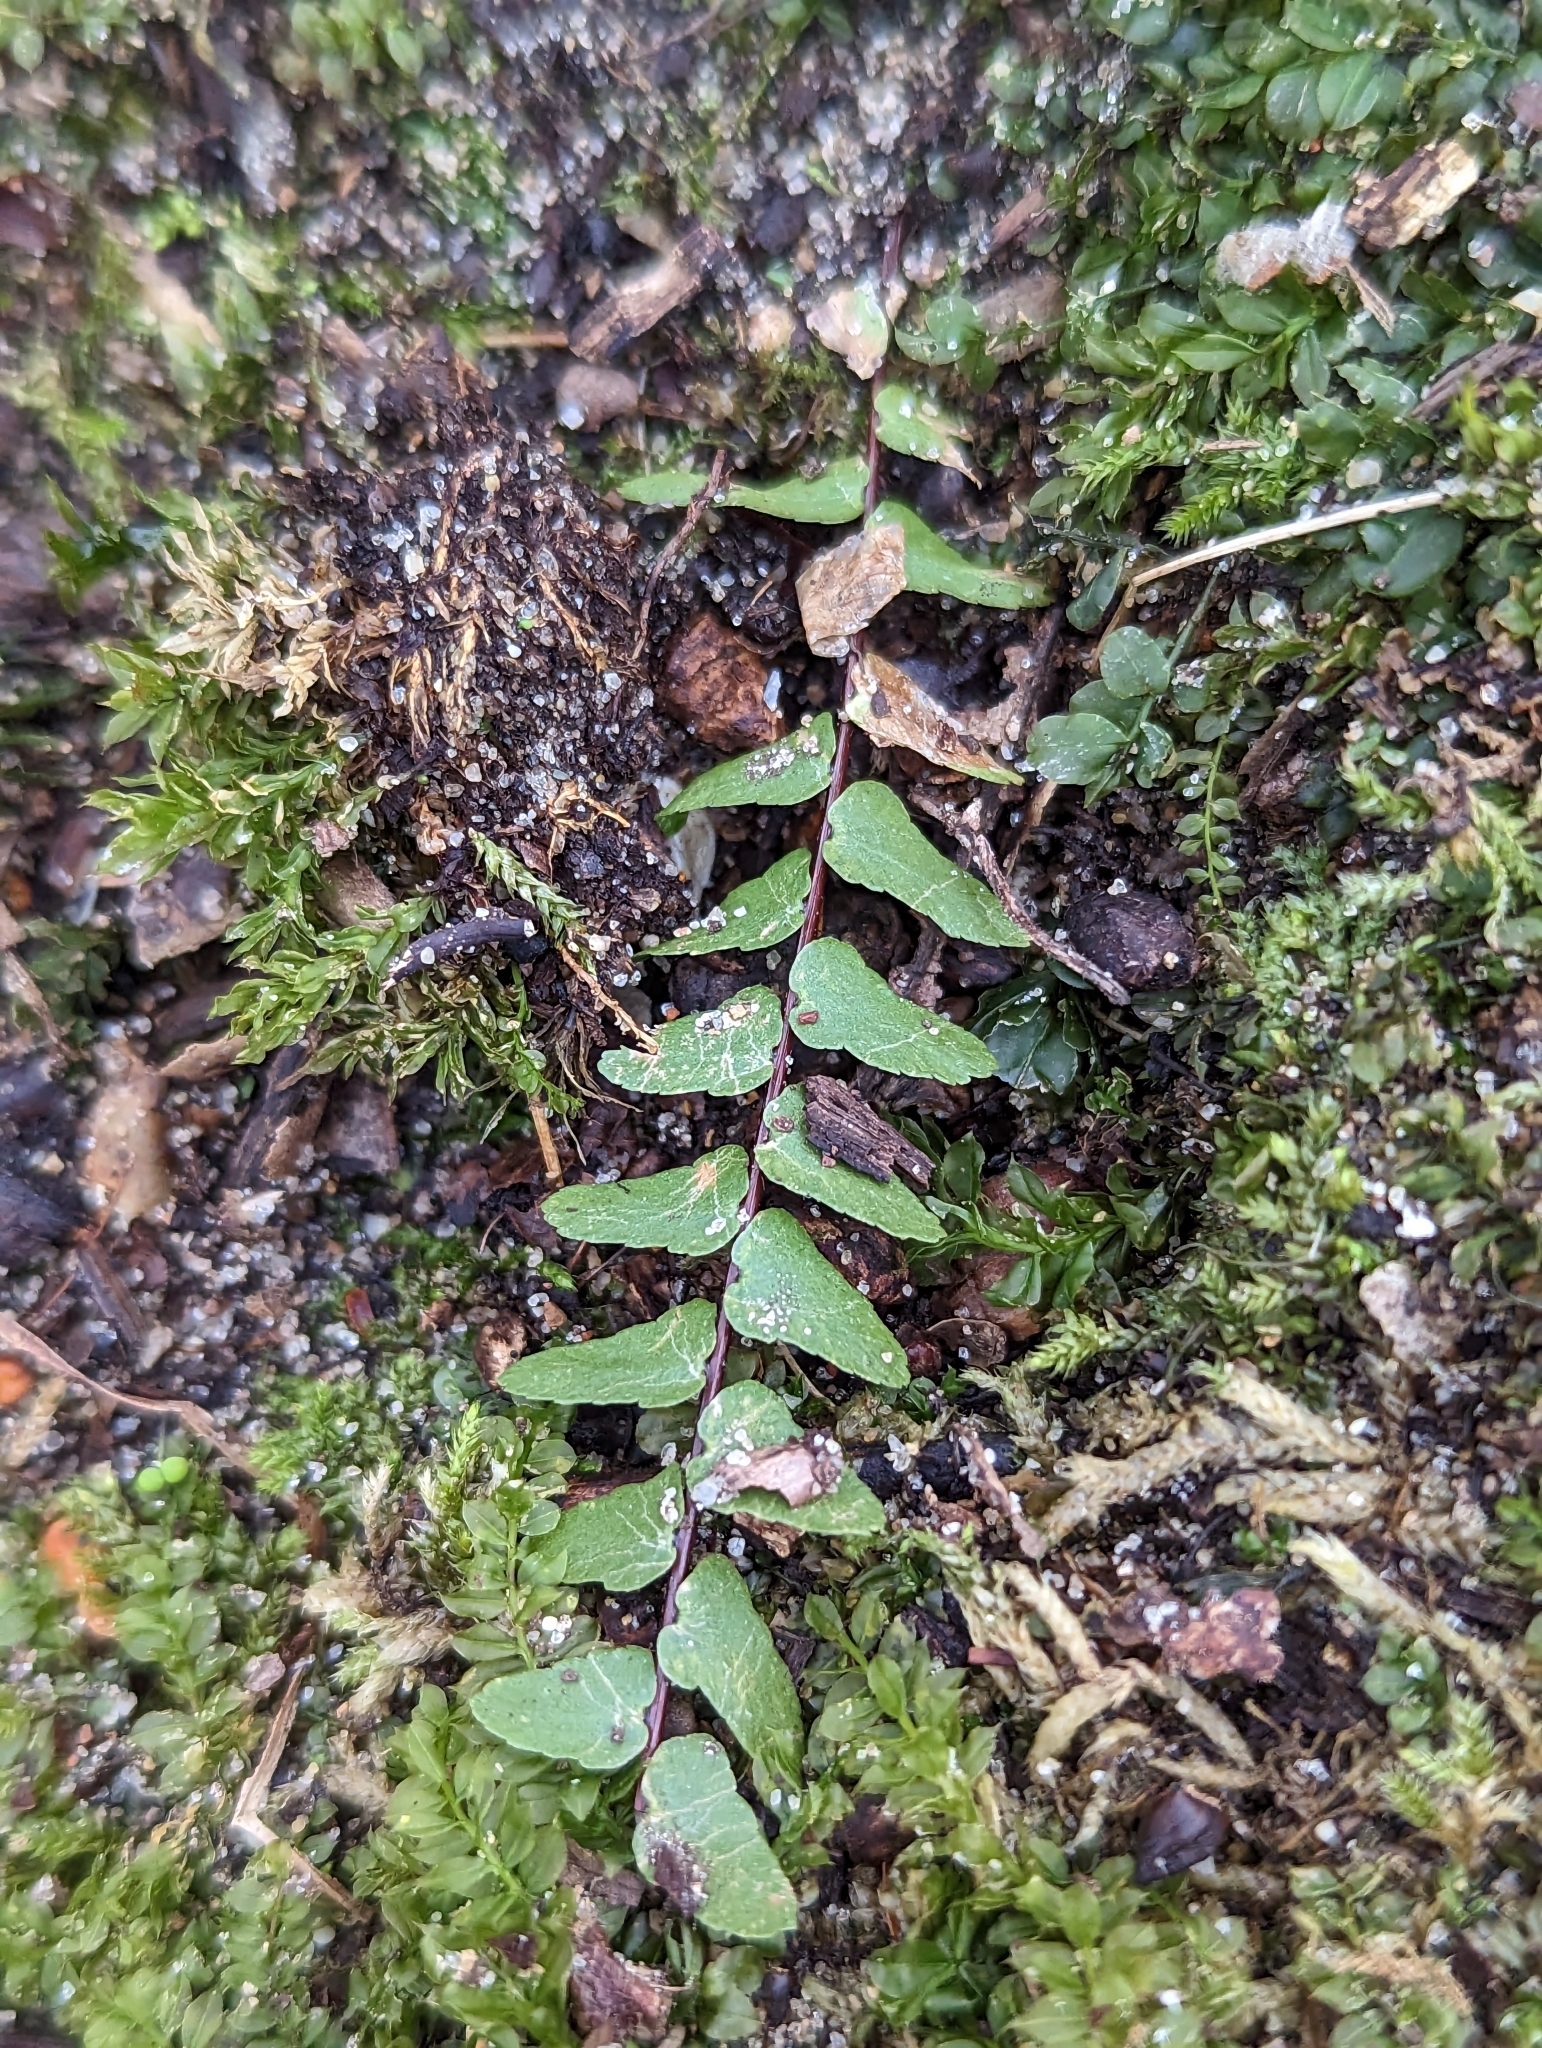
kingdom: Plantae
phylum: Tracheophyta
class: Polypodiopsida
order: Polypodiales
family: Aspleniaceae
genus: Asplenium
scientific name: Asplenium platyneuron
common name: Ebony spleenwort
